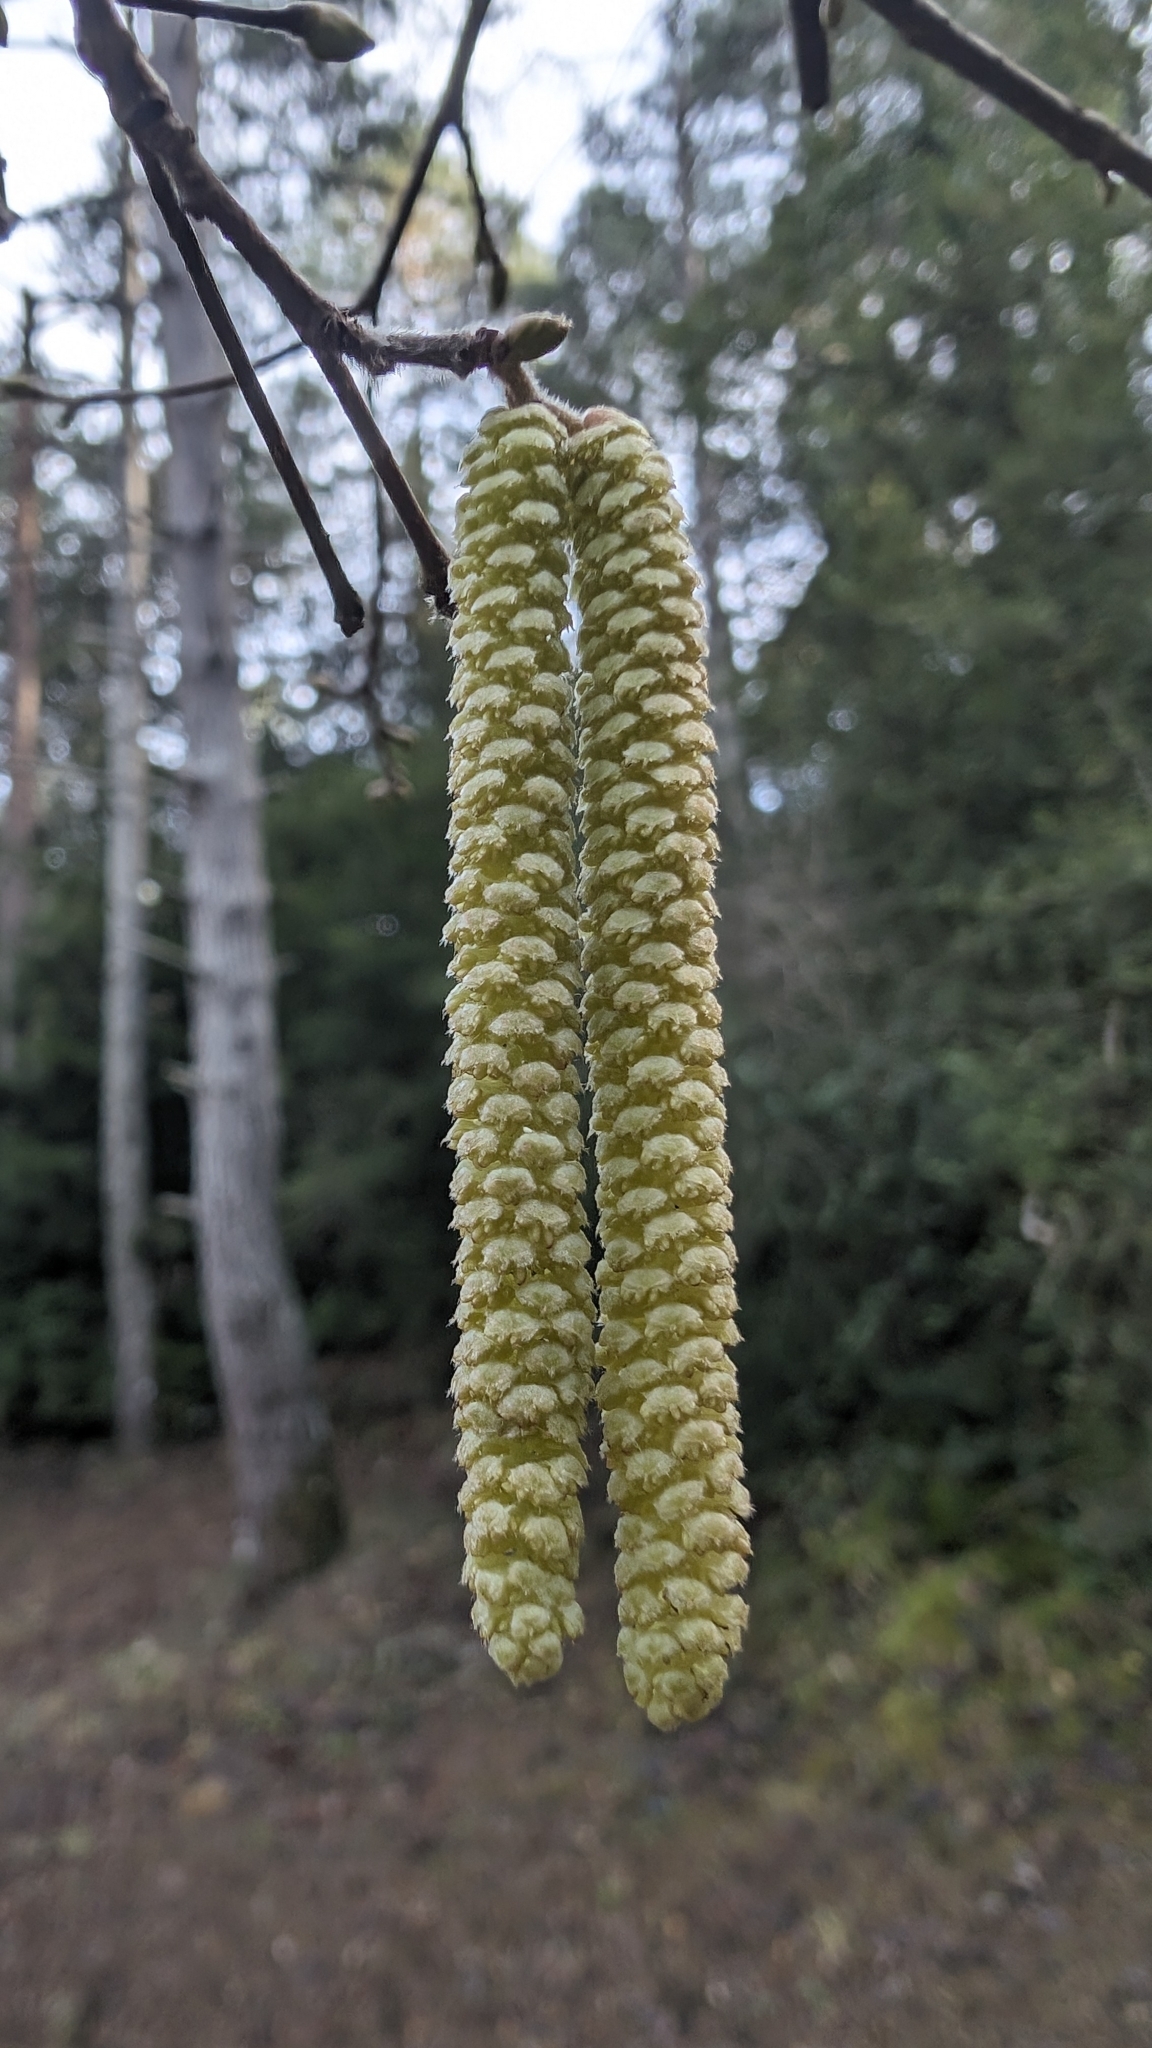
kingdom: Plantae
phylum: Tracheophyta
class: Magnoliopsida
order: Fagales
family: Betulaceae
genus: Corylus
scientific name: Corylus avellana
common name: European hazel
